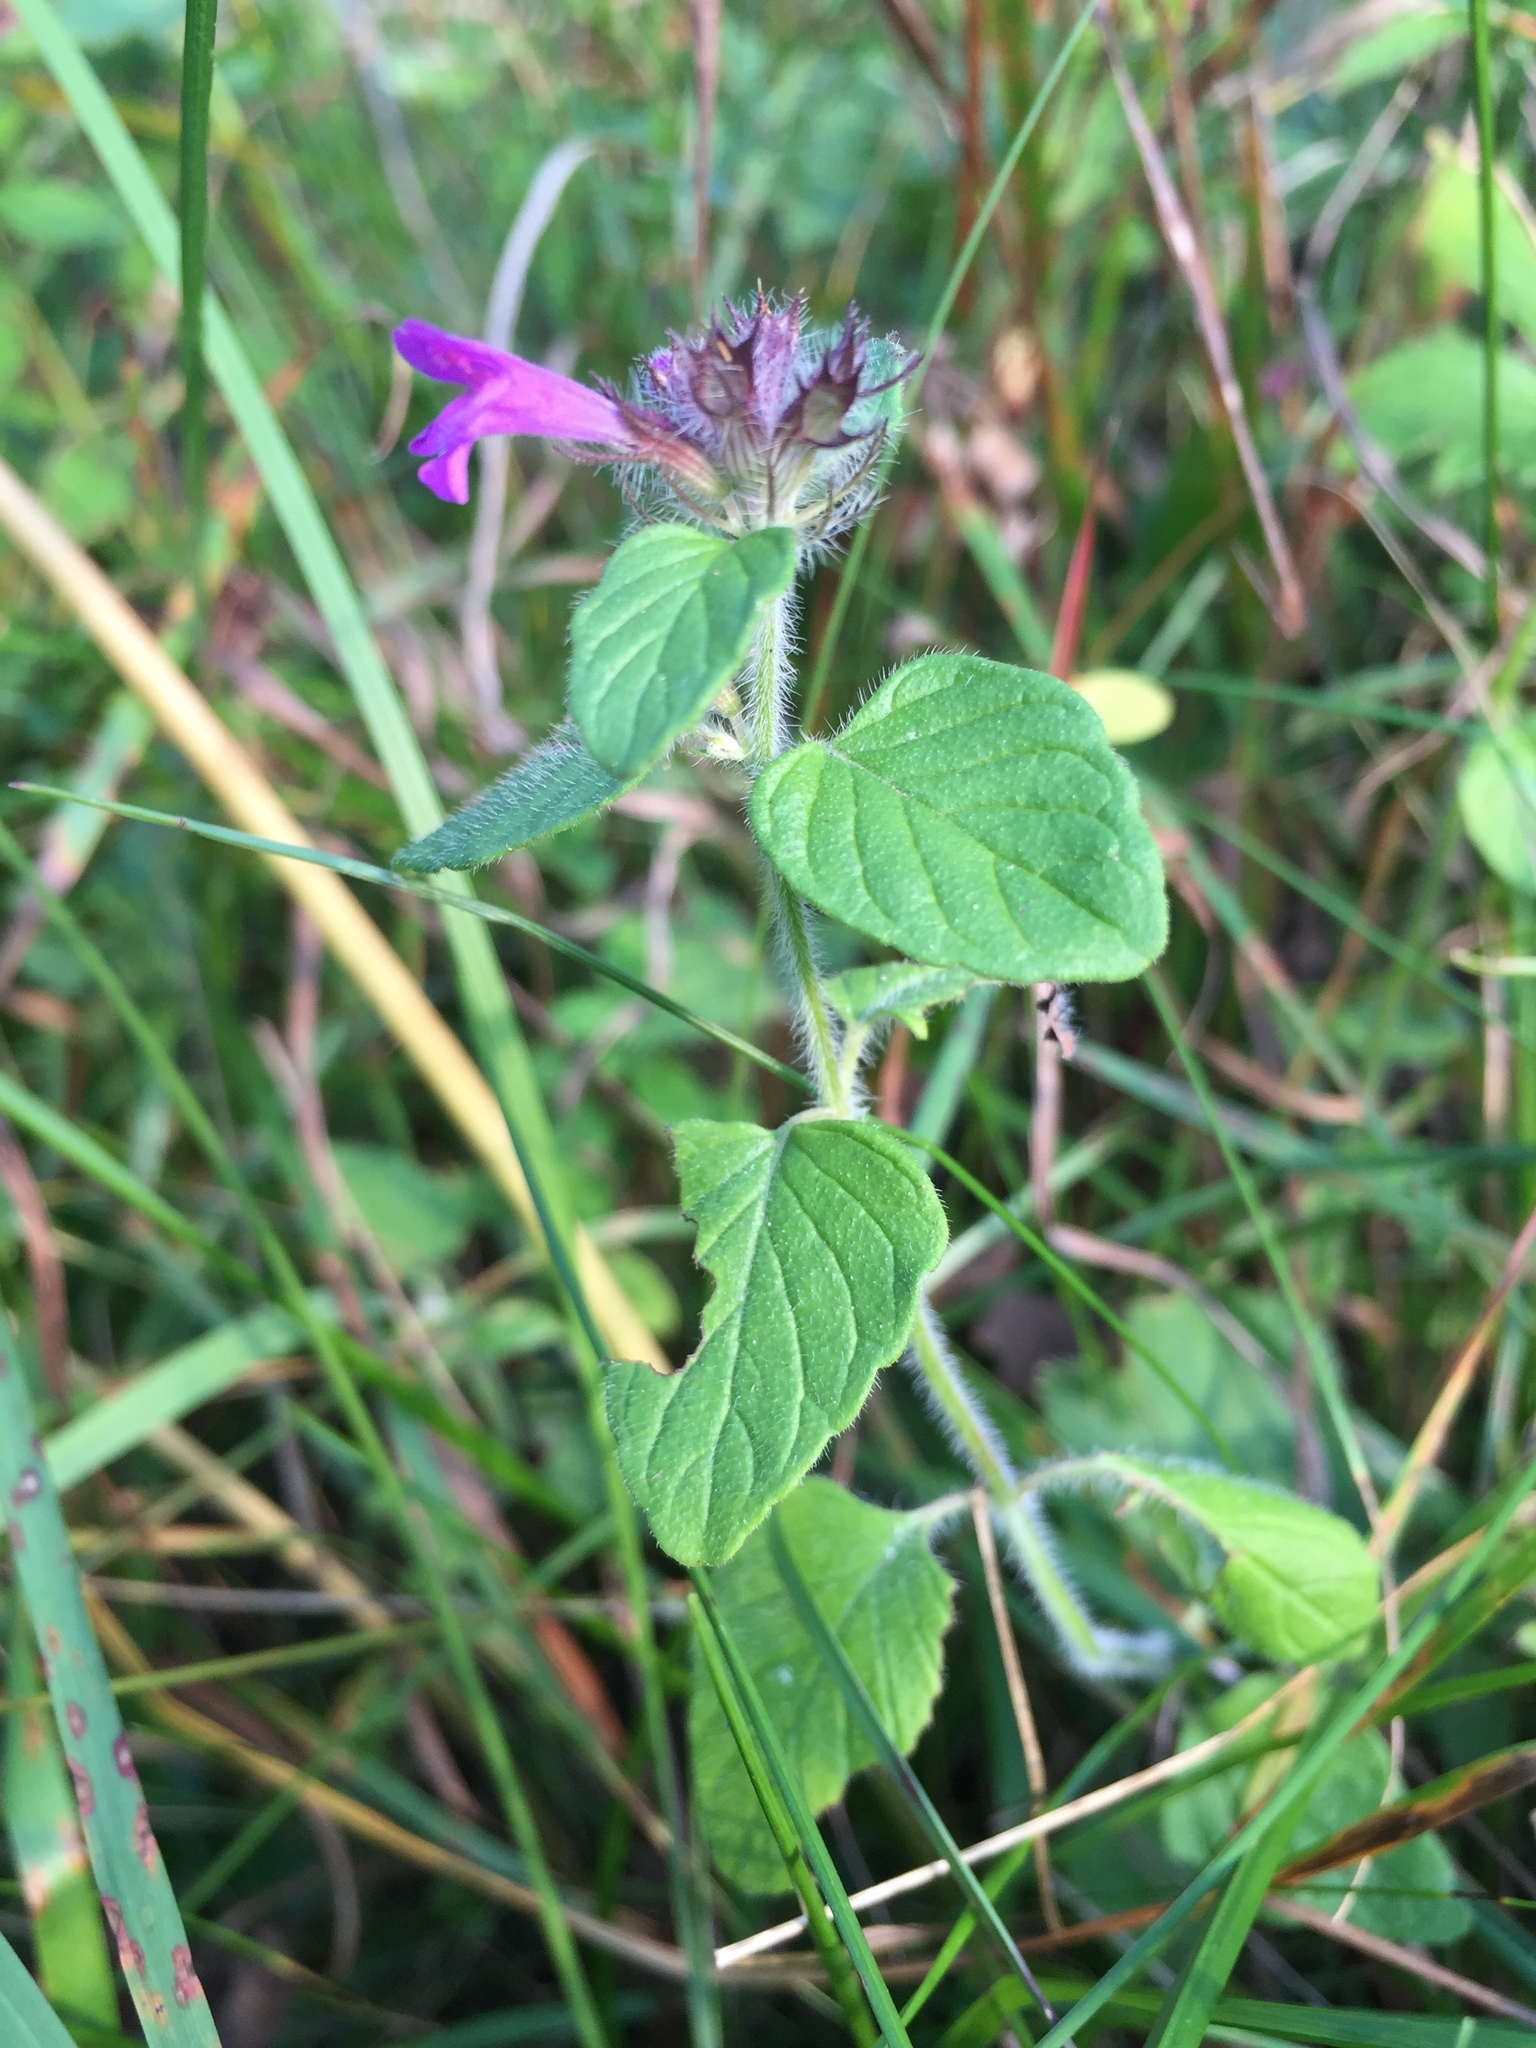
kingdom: Plantae
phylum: Tracheophyta
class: Magnoliopsida
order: Lamiales
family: Lamiaceae
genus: Clinopodium
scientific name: Clinopodium vulgare
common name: Wild basil
